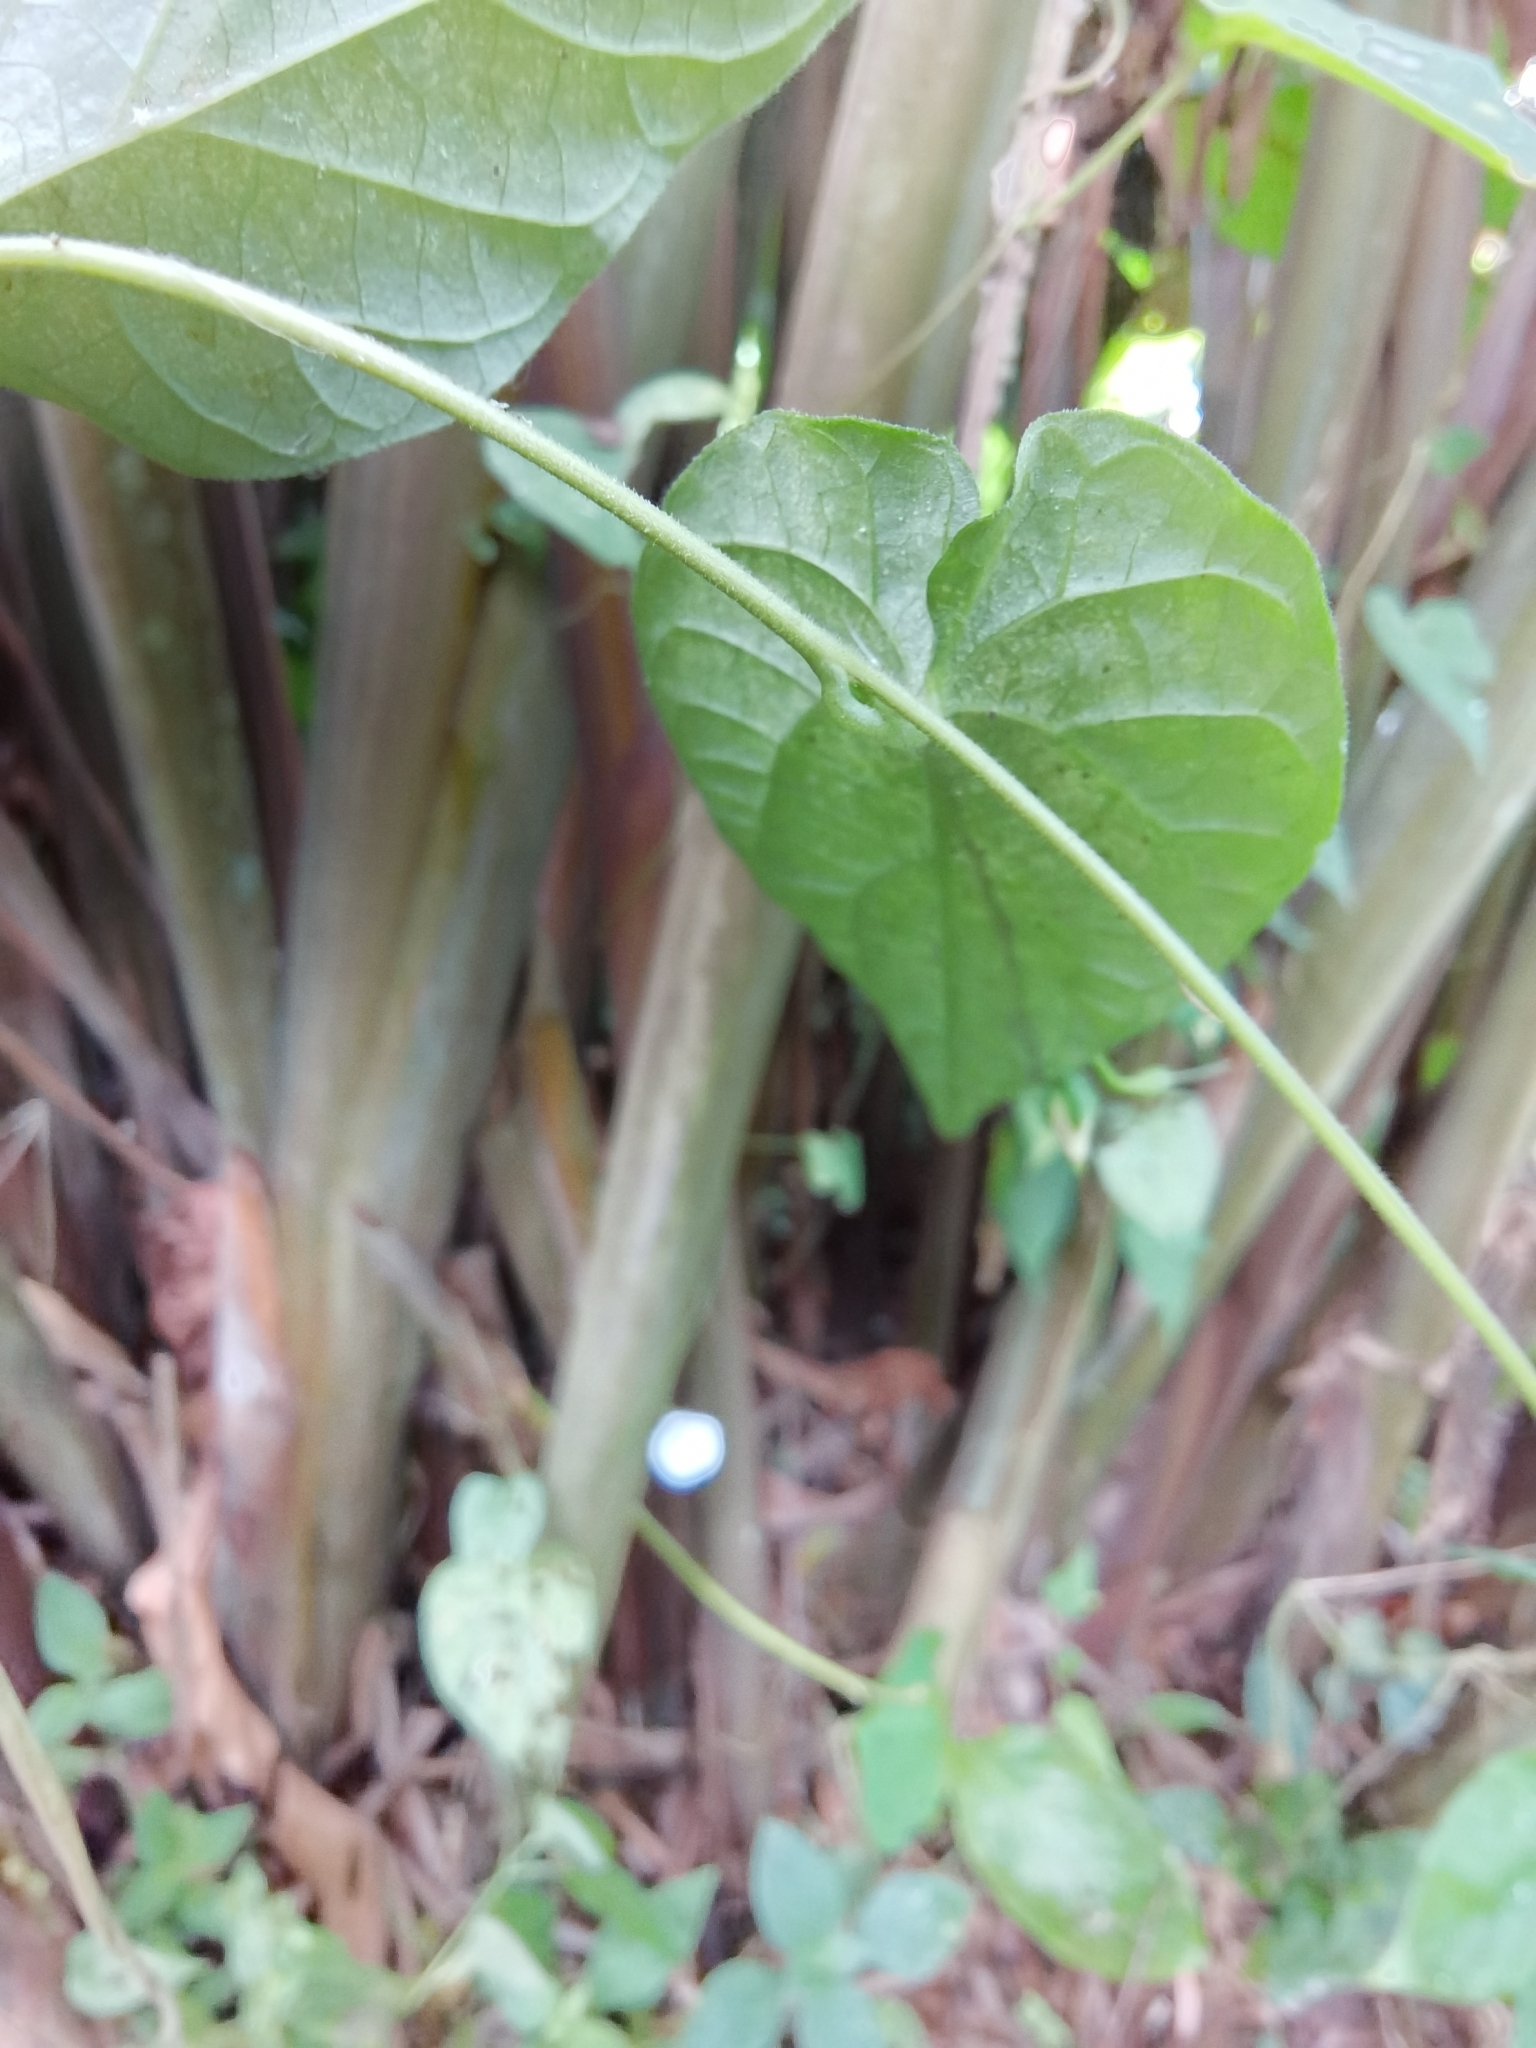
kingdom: Plantae
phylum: Tracheophyta
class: Magnoliopsida
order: Solanales
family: Convolvulaceae
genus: Ipomoea
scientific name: Ipomoea aristolochiifolia
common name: Aristolochia-leaved morning-glory
